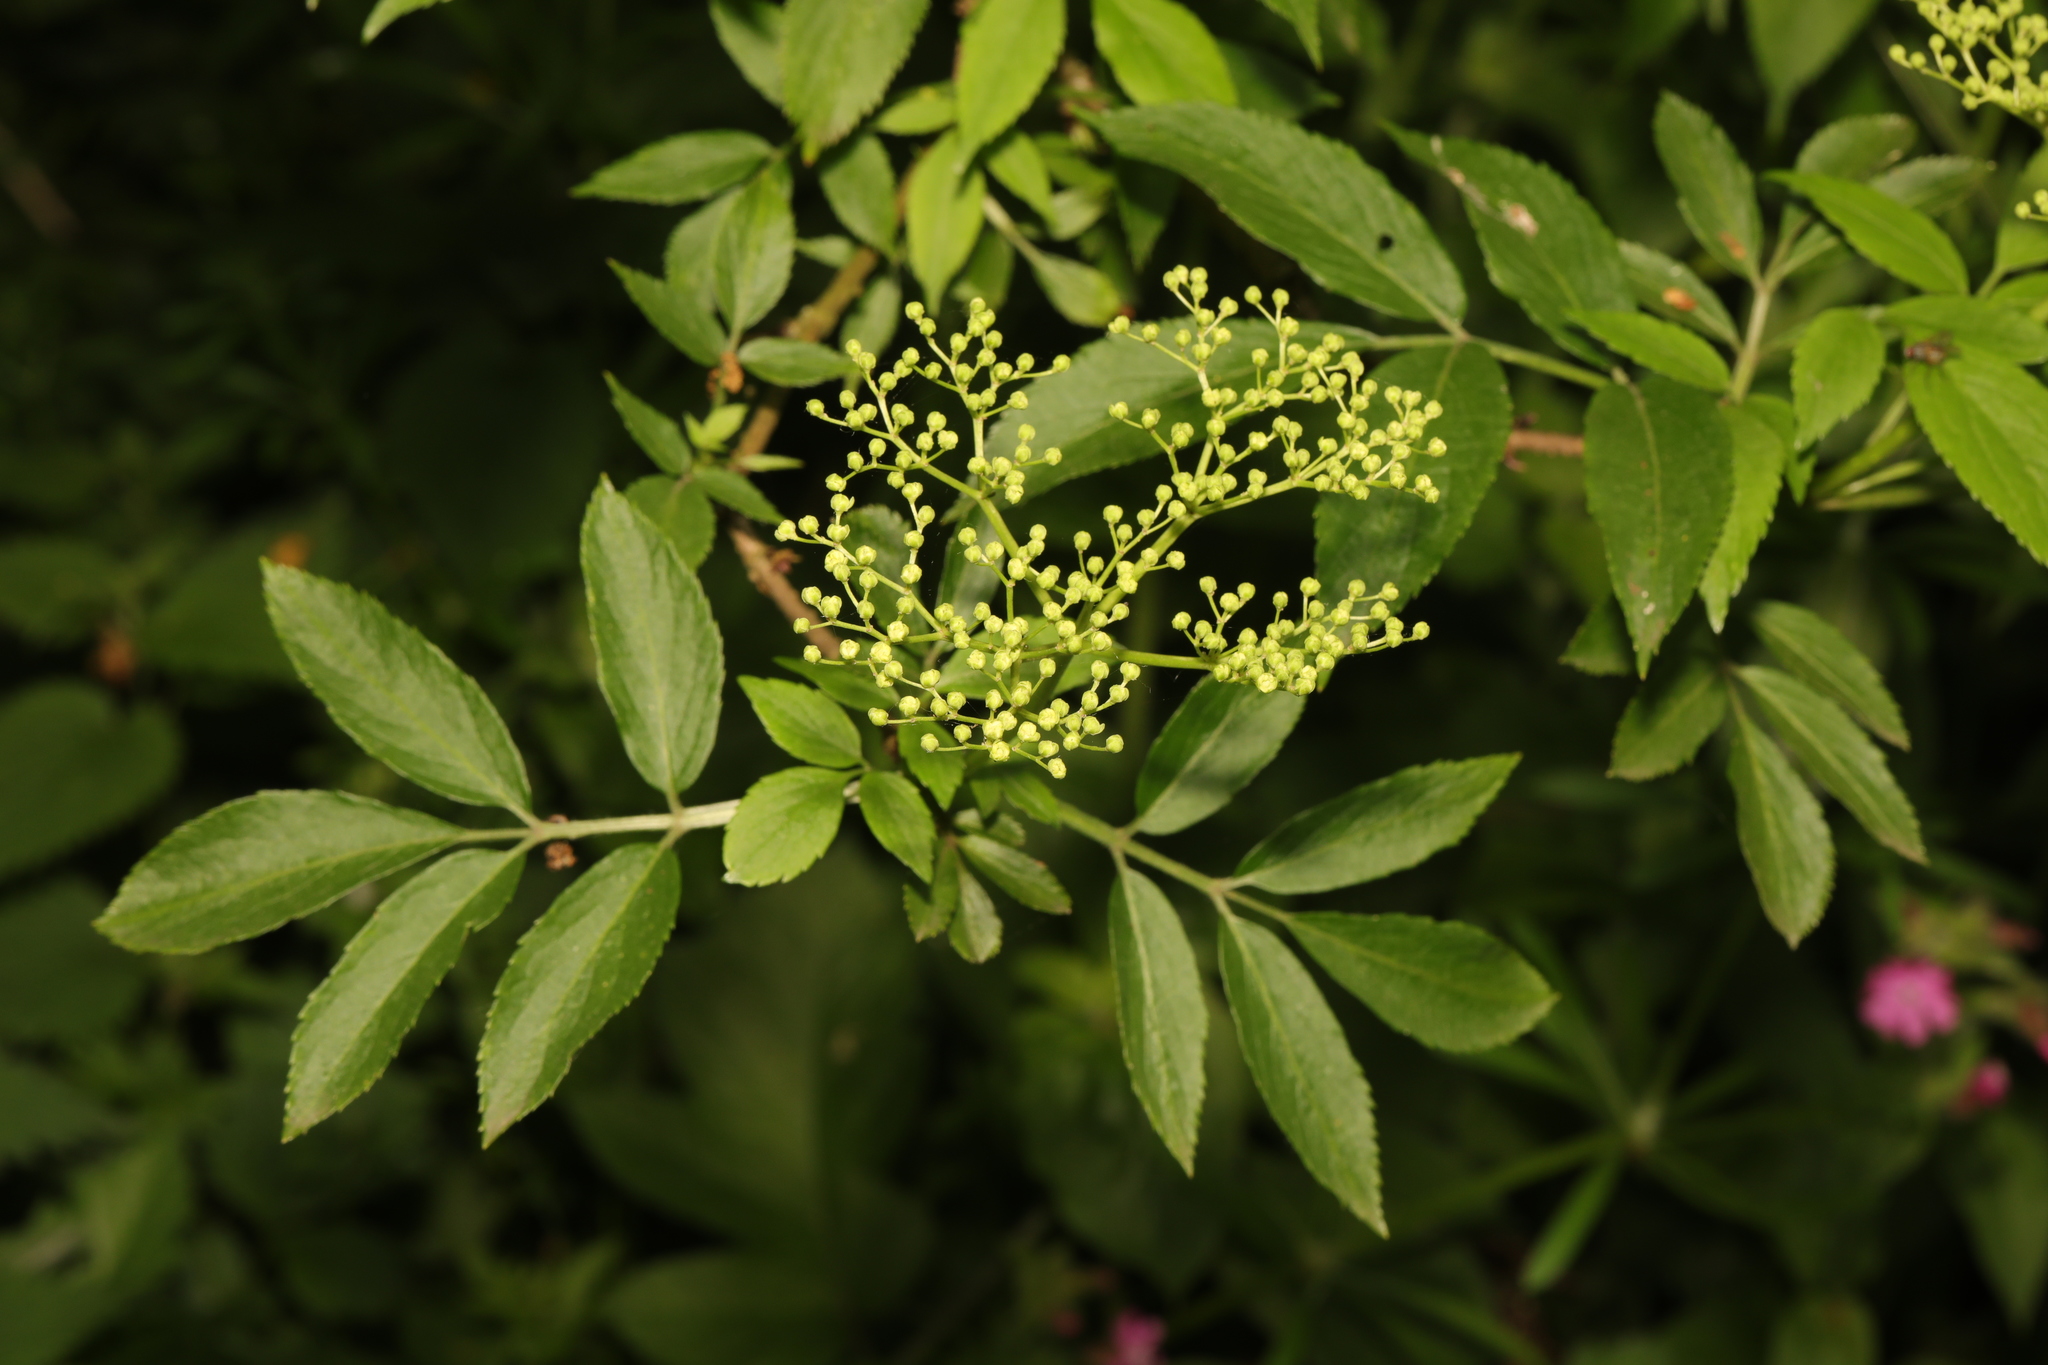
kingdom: Plantae
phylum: Tracheophyta
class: Magnoliopsida
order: Dipsacales
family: Viburnaceae
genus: Sambucus
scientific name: Sambucus nigra
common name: Elder
